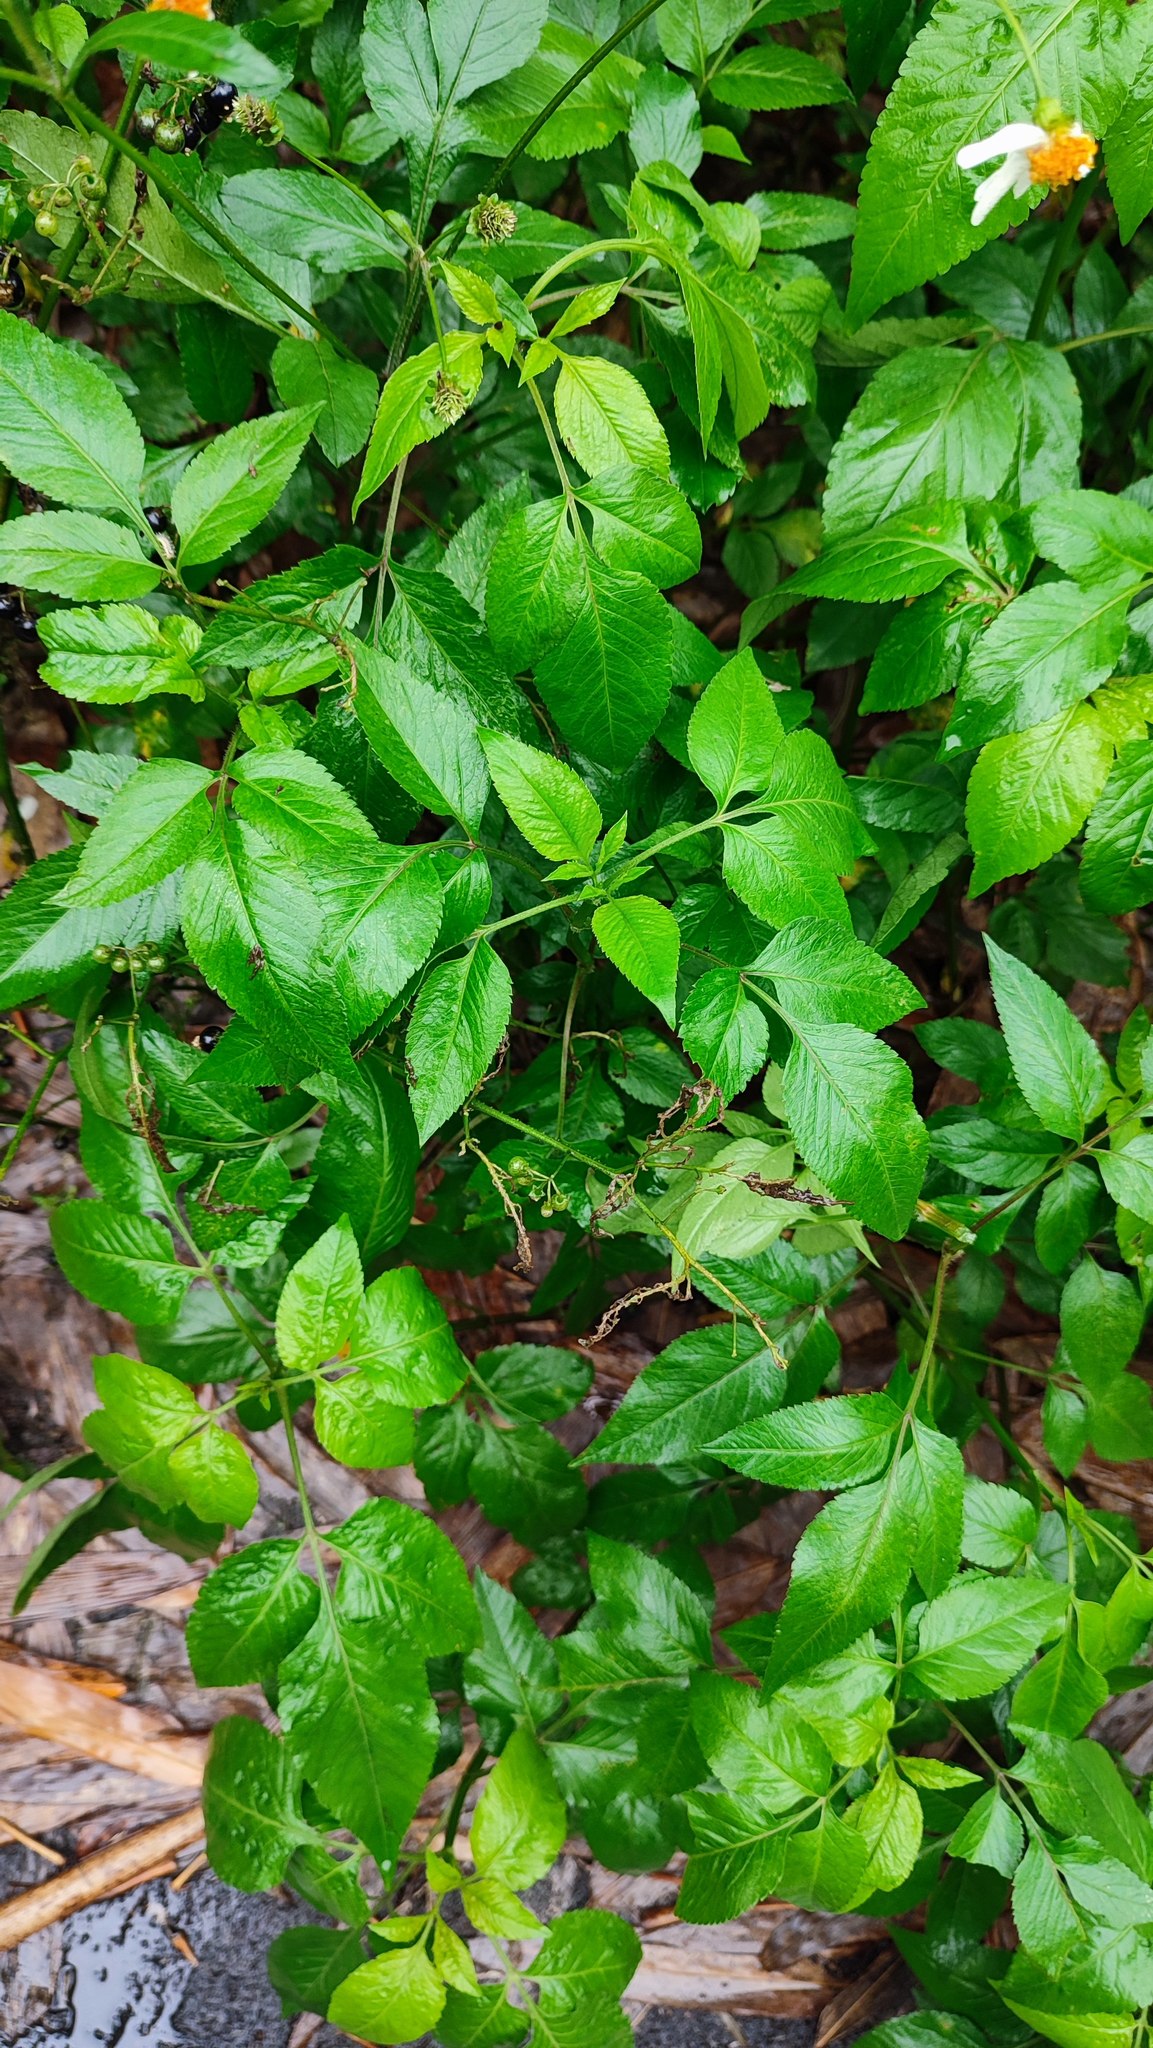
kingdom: Plantae
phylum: Tracheophyta
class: Magnoliopsida
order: Asterales
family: Asteraceae
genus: Bidens
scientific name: Bidens alba
